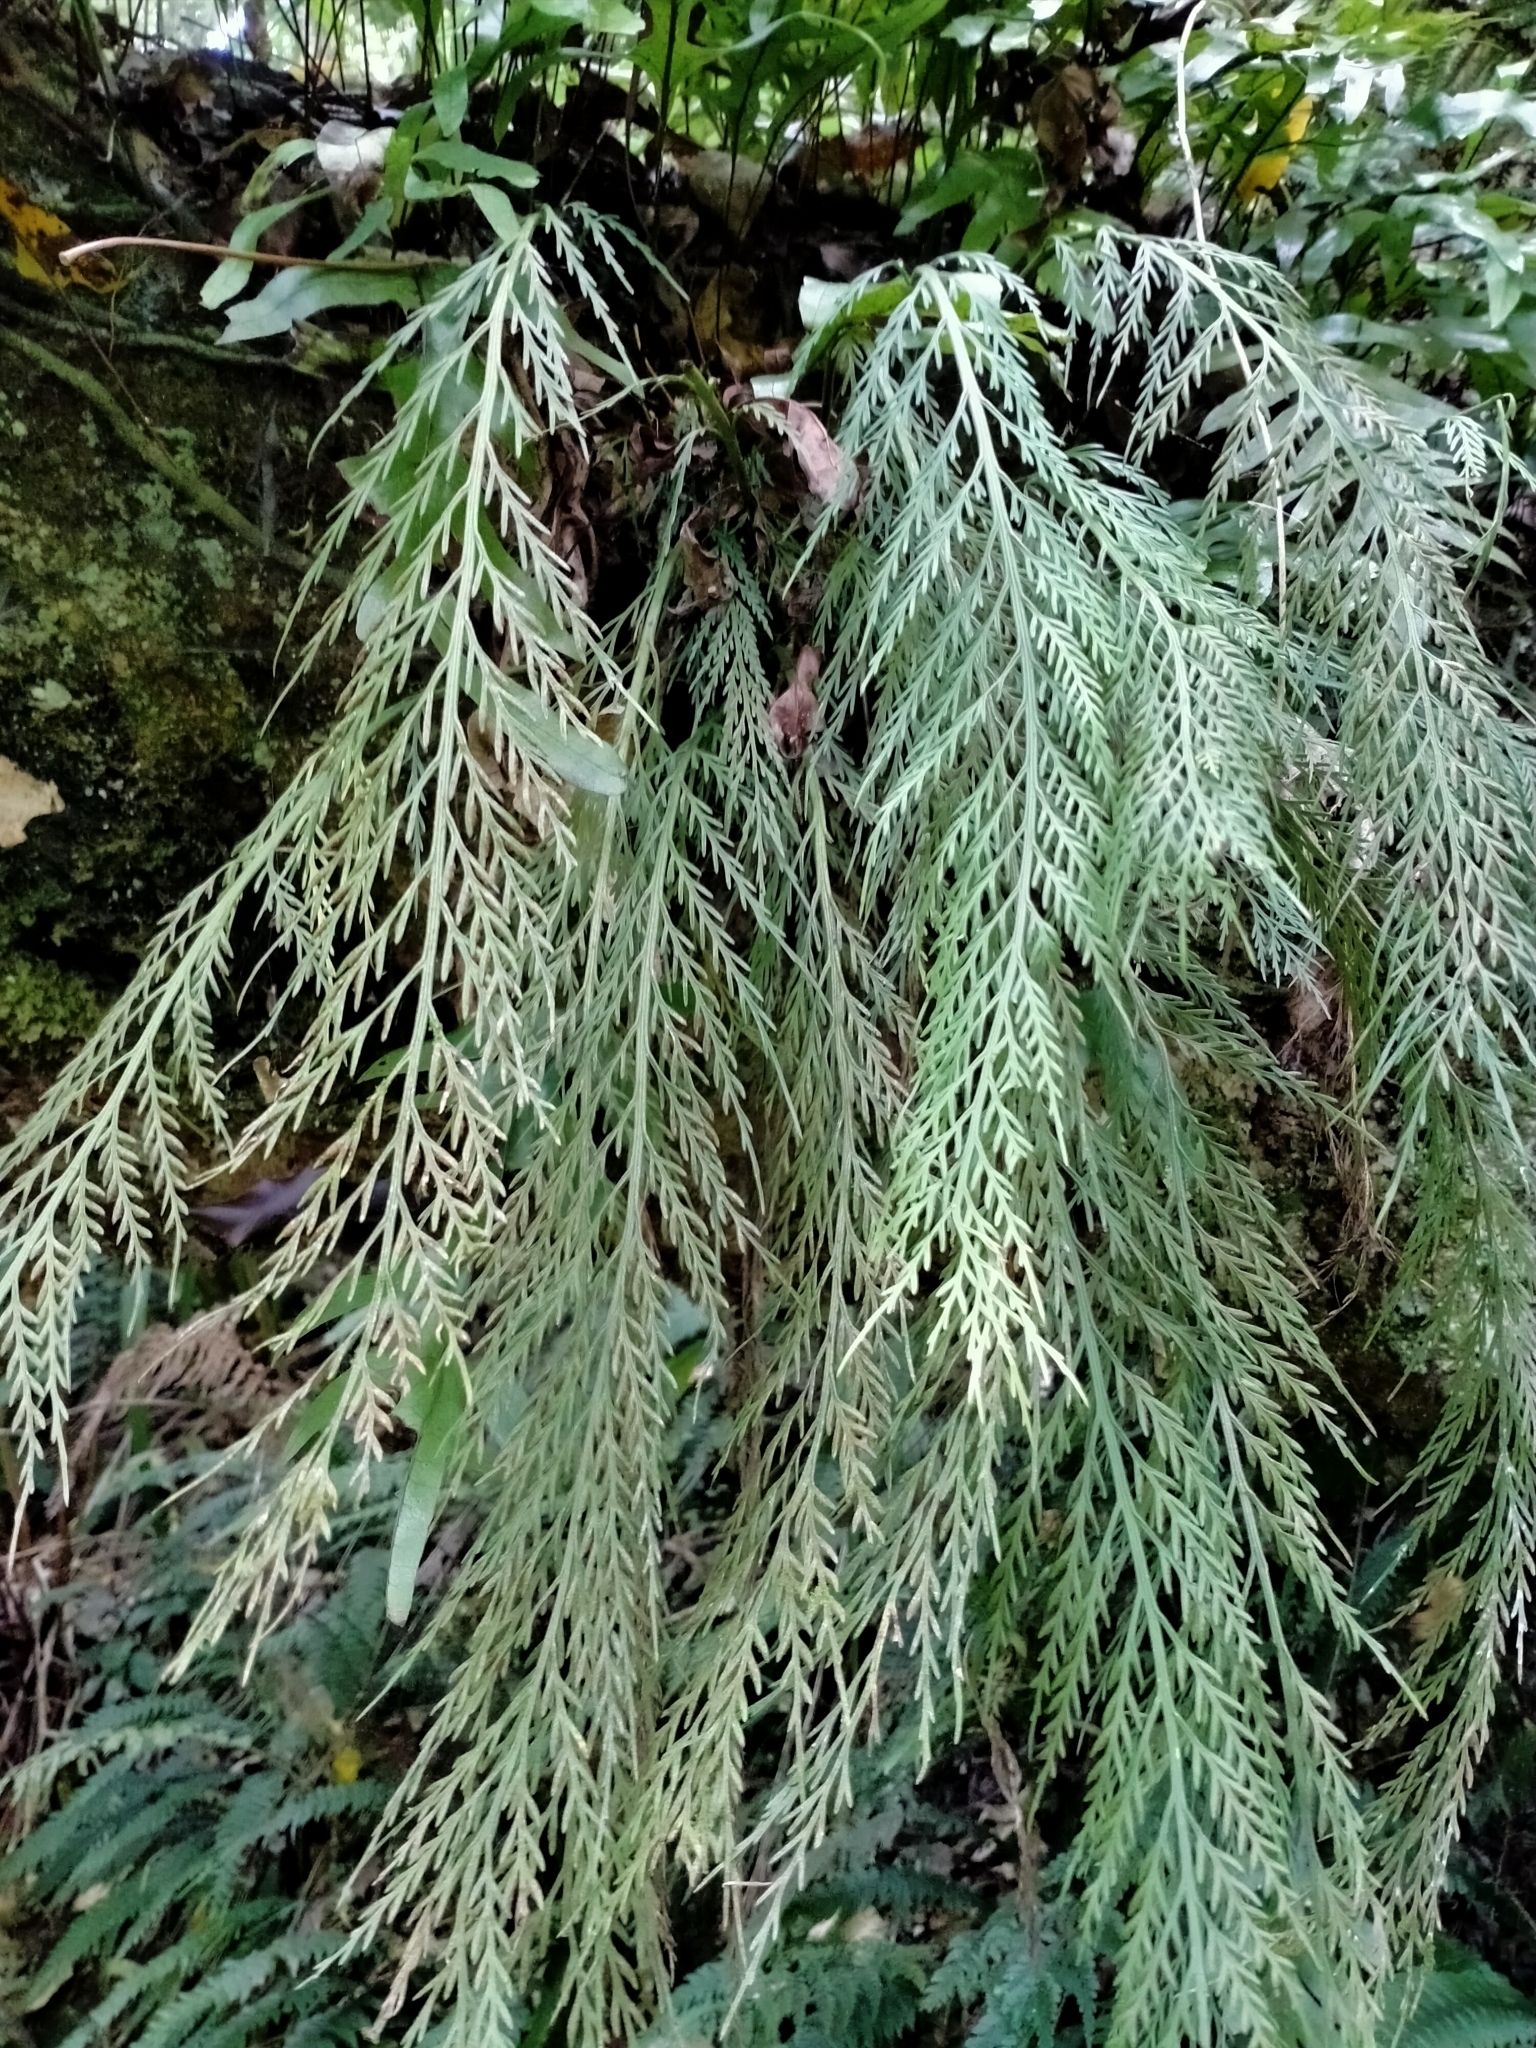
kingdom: Plantae
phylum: Tracheophyta
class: Polypodiopsida
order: Polypodiales
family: Aspleniaceae
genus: Asplenium
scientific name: Asplenium flaccidum
